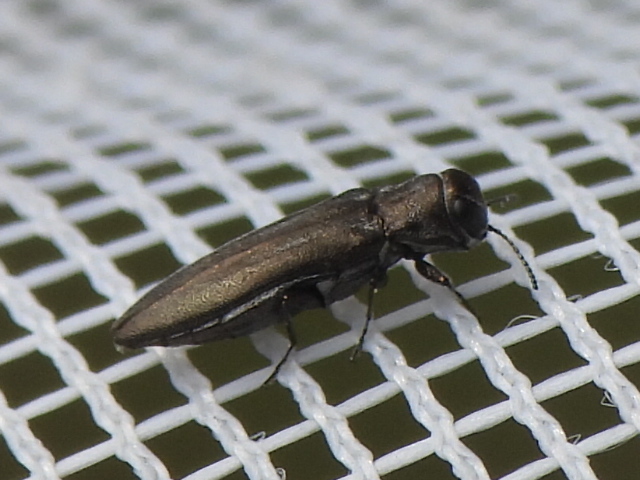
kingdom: Animalia
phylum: Arthropoda
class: Insecta
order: Coleoptera
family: Buprestidae
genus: Agrilus
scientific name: Agrilus muticus
